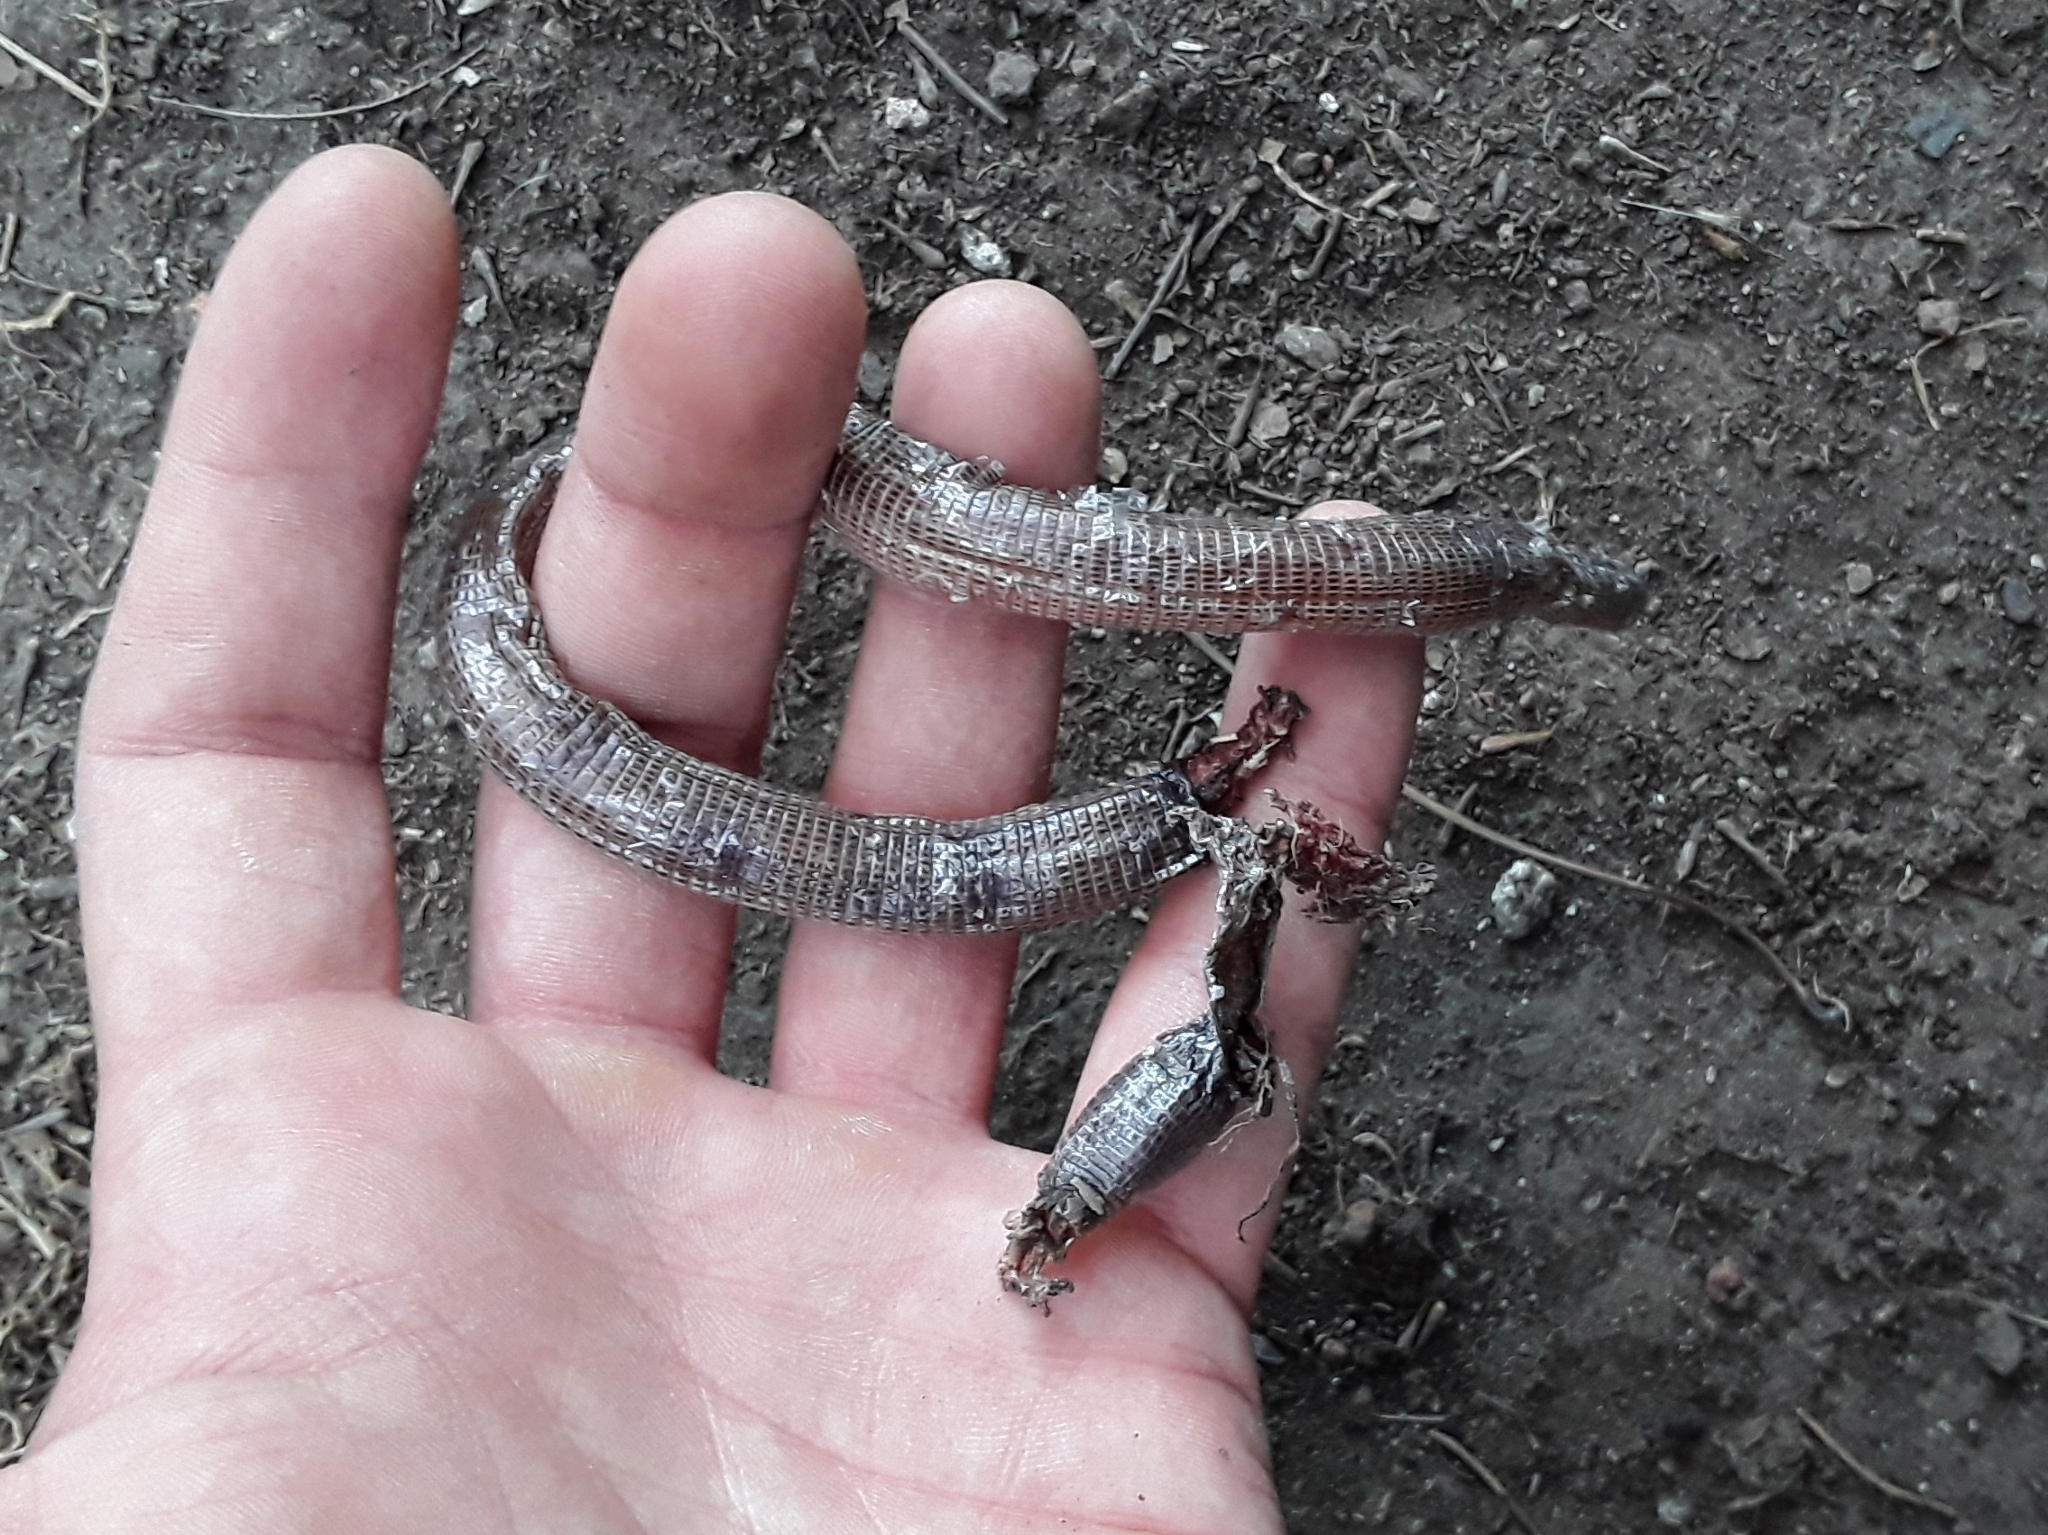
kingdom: Animalia
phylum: Chordata
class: Squamata
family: Amphisbaenidae
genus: Amphisbaena
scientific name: Amphisbaena darwinii
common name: Darwin's ringed worm lizard
